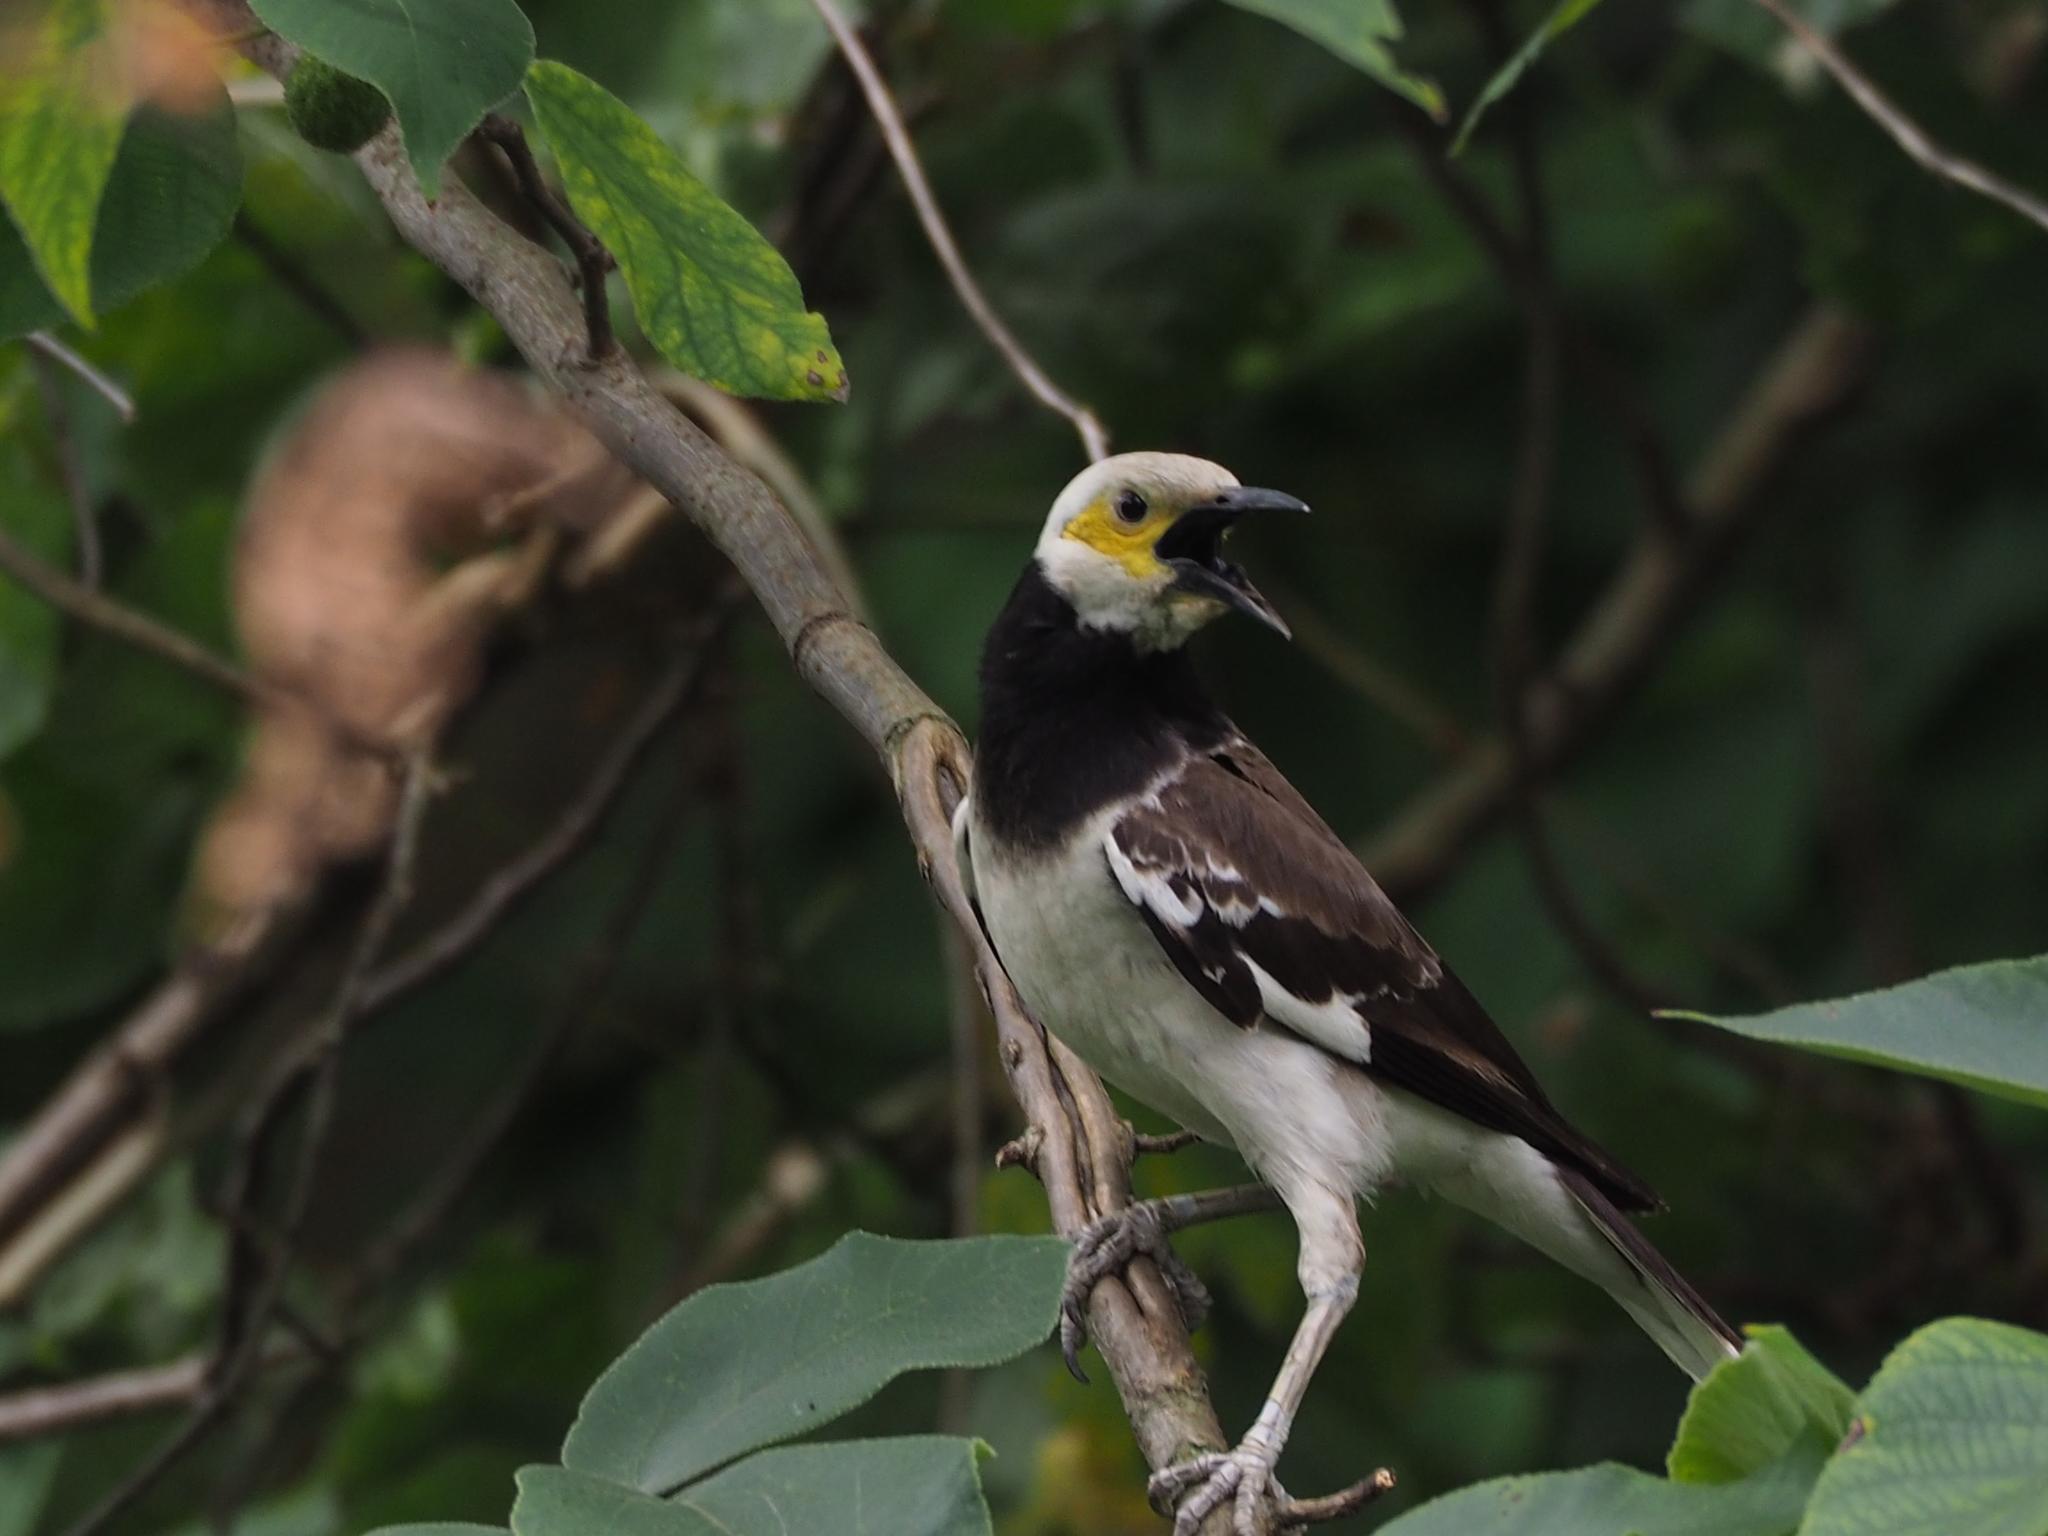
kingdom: Animalia
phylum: Chordata
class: Aves
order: Passeriformes
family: Sturnidae
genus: Gracupica
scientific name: Gracupica nigricollis
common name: Black-collared starling
